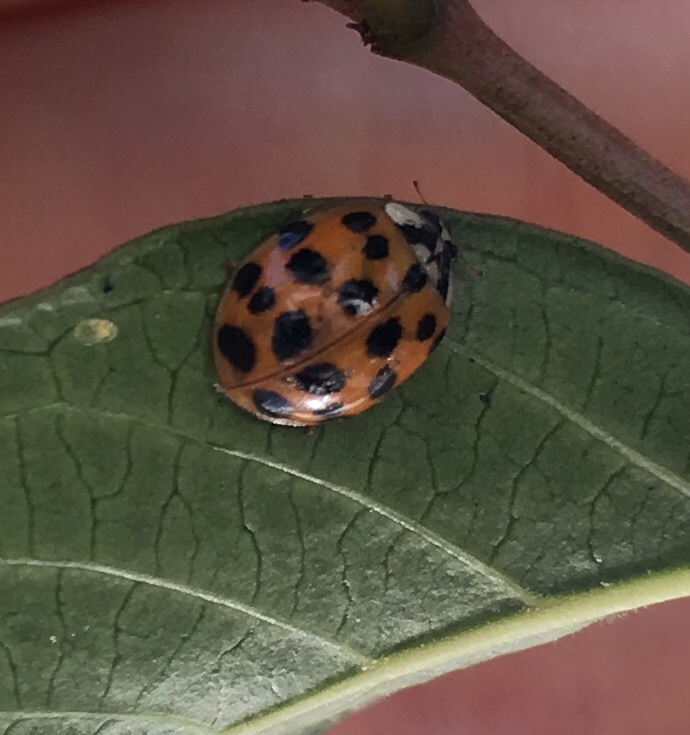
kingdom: Animalia
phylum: Arthropoda
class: Insecta
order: Coleoptera
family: Coccinellidae
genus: Harmonia
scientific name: Harmonia axyridis
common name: Harlequin ladybird
